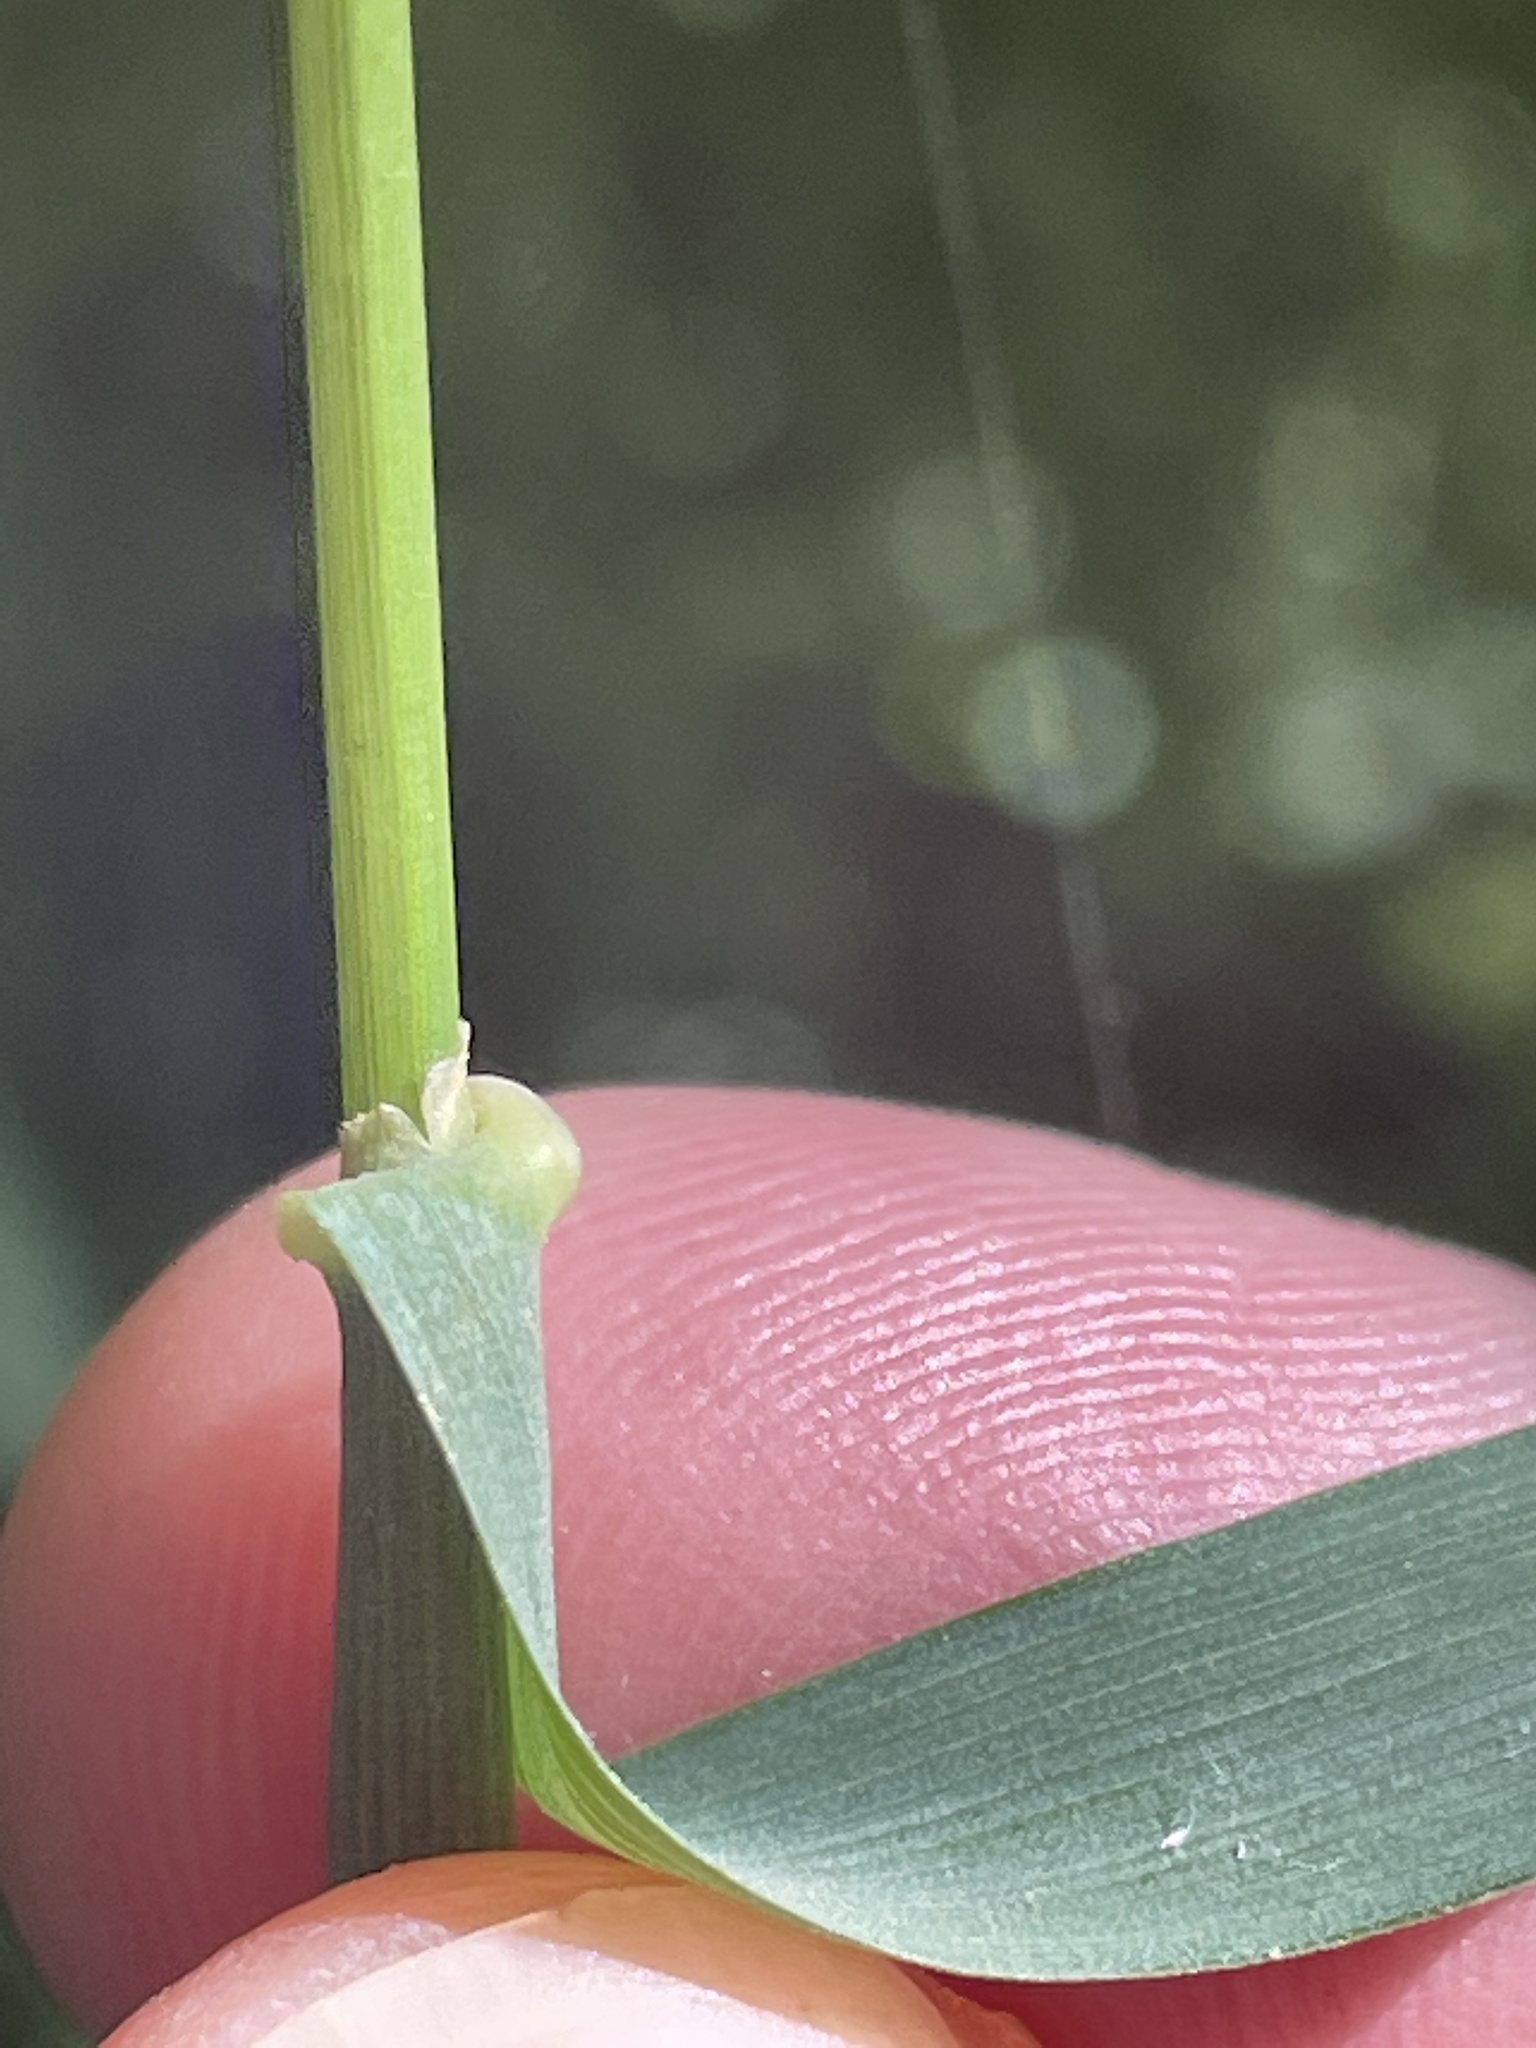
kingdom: Plantae
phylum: Tracheophyta
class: Liliopsida
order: Poales
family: Poaceae
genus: Arrhenatherum
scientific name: Arrhenatherum elatius
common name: Tall oatgrass
